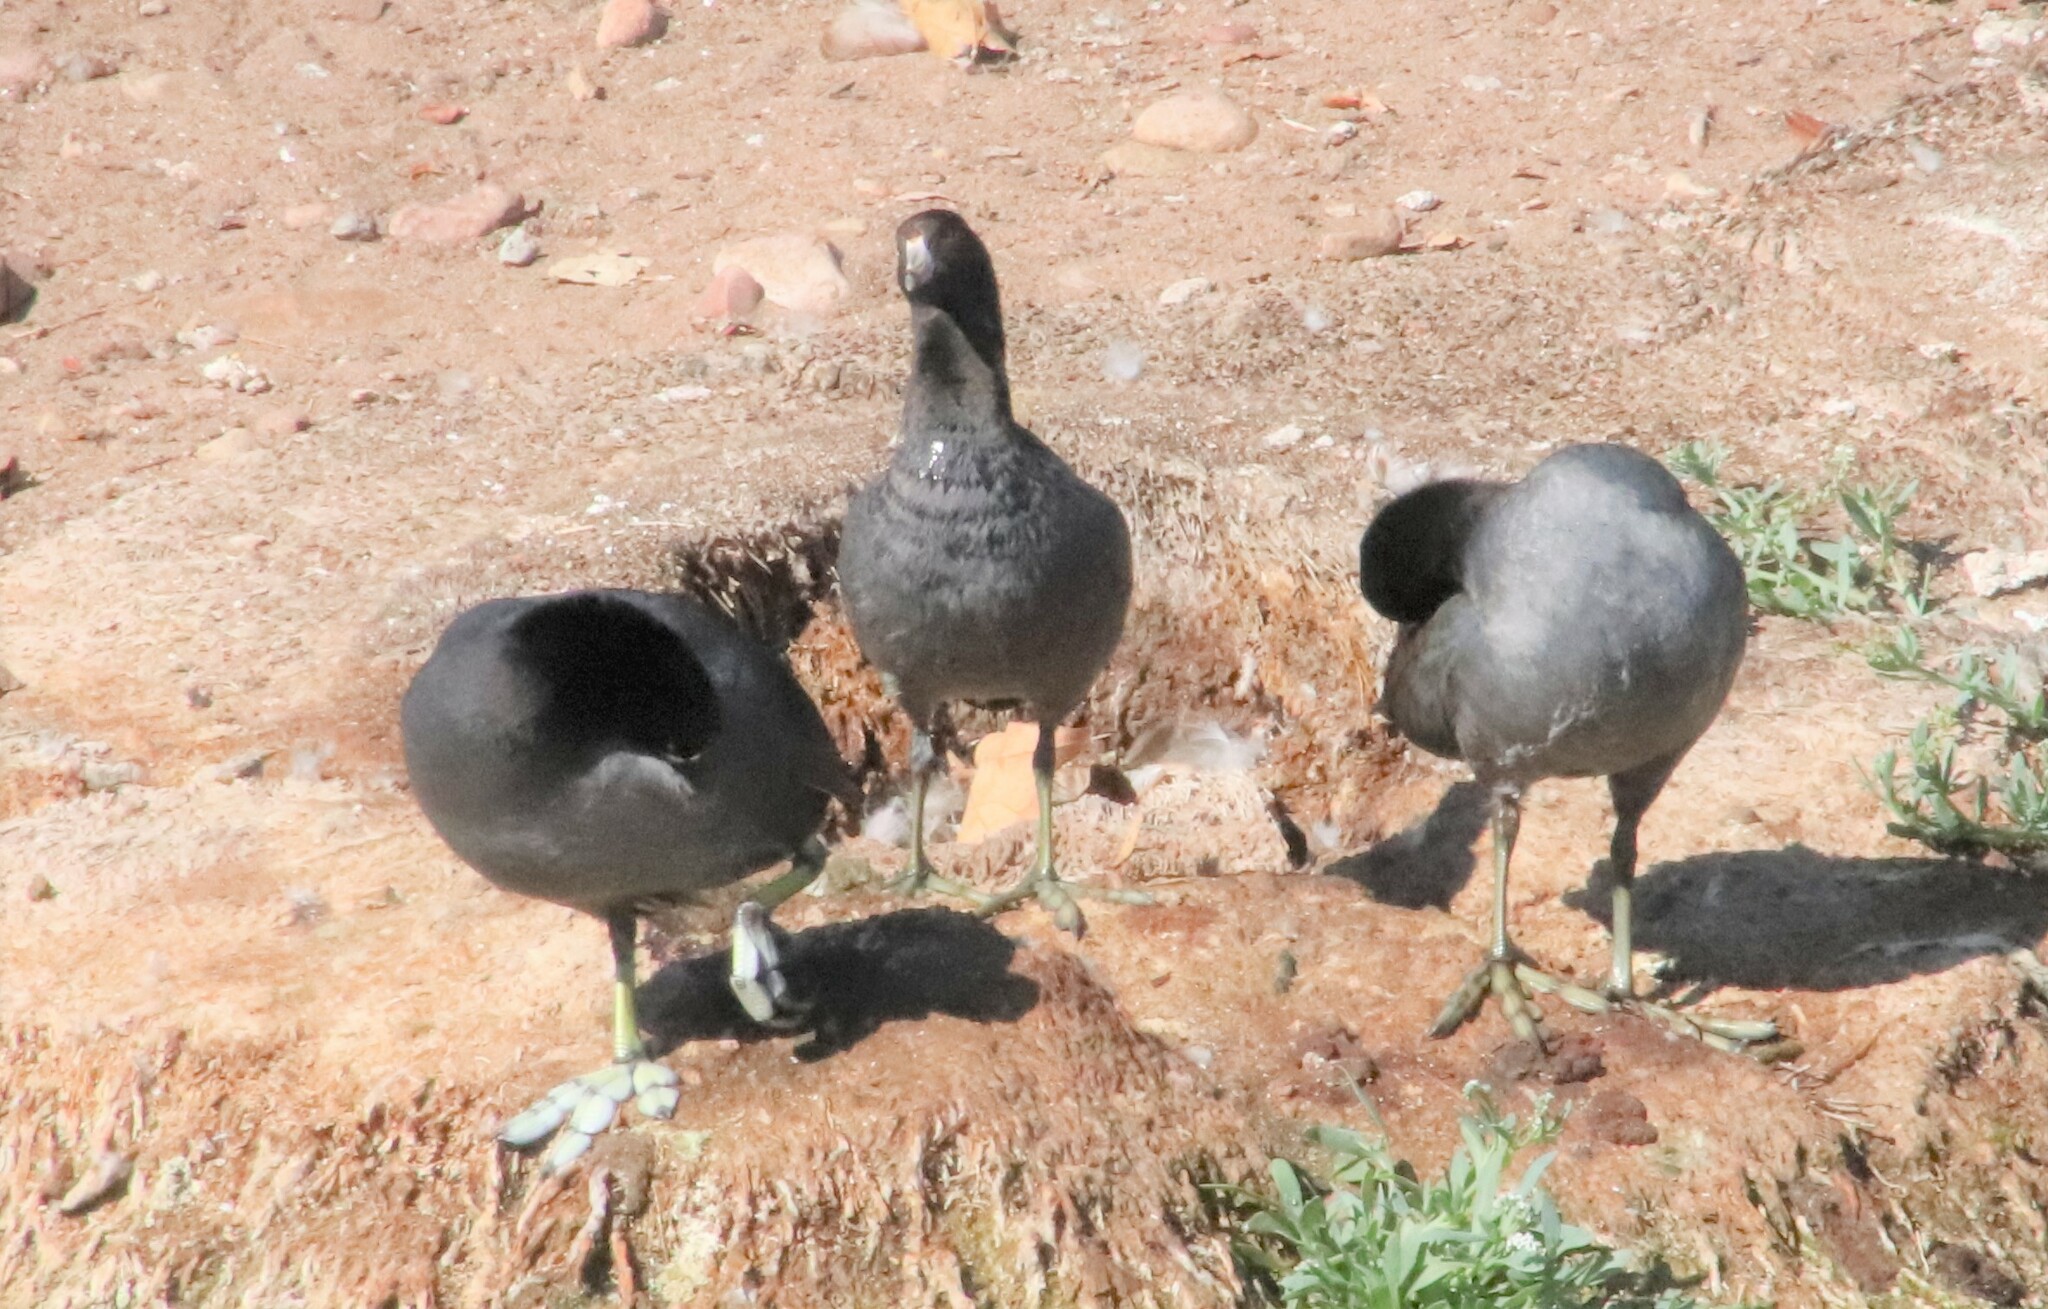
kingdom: Animalia
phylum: Chordata
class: Aves
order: Gruiformes
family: Rallidae
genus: Fulica
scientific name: Fulica americana
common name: American coot
